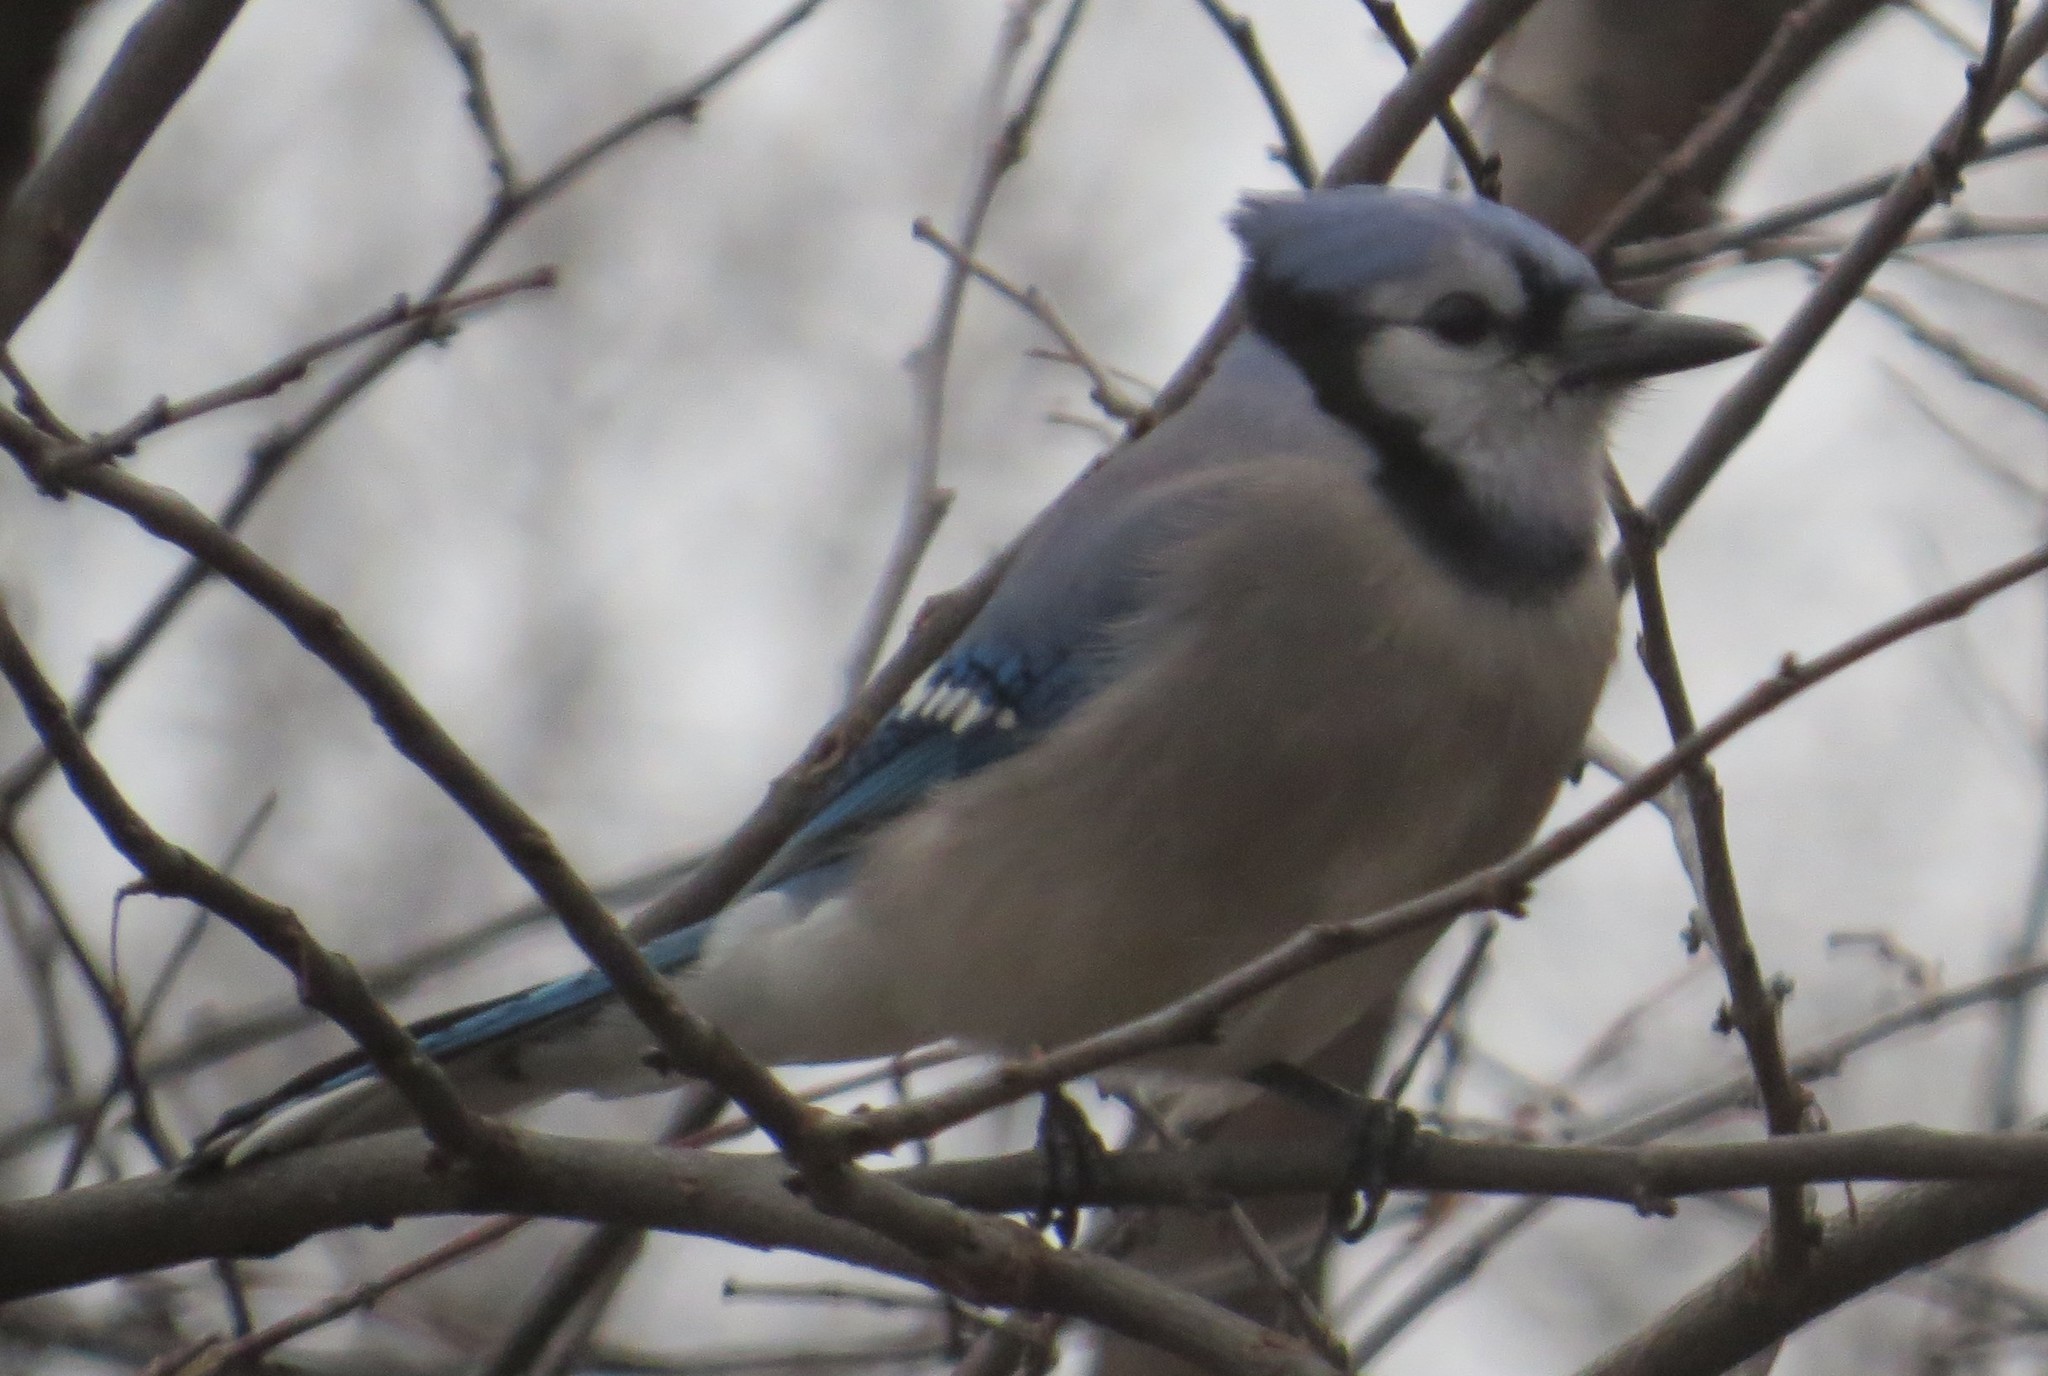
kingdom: Animalia
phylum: Chordata
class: Aves
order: Passeriformes
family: Corvidae
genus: Cyanocitta
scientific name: Cyanocitta cristata
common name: Blue jay
